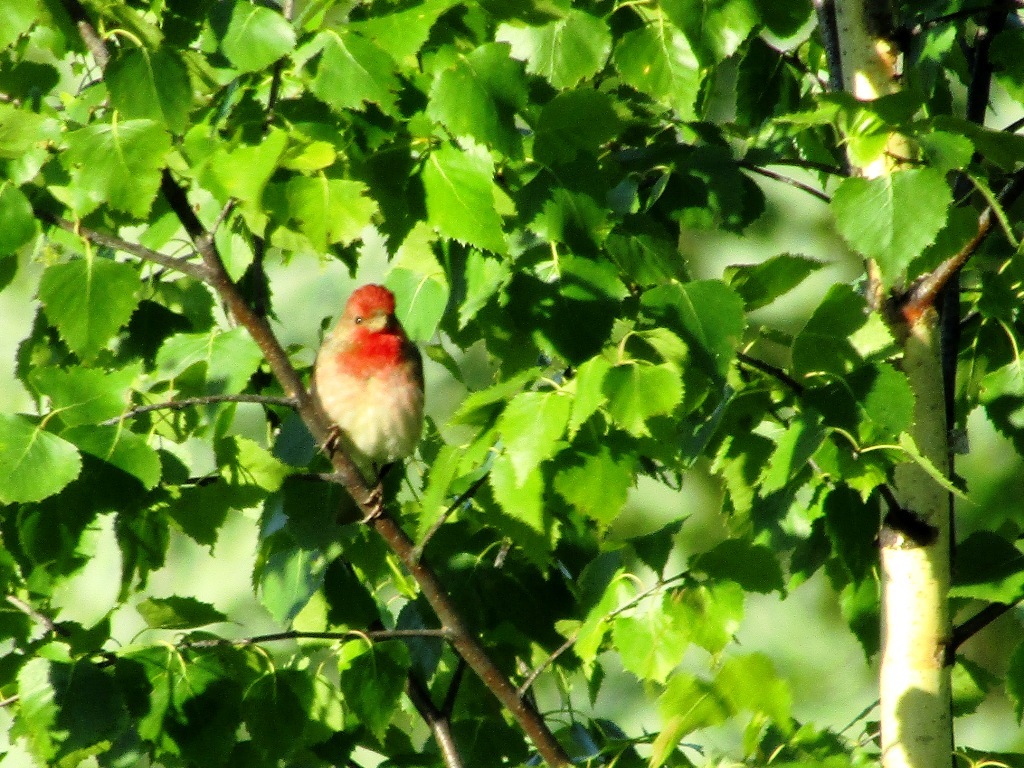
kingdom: Animalia
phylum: Chordata
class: Aves
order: Passeriformes
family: Fringillidae
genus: Carpodacus
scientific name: Carpodacus erythrinus
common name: Common rosefinch
